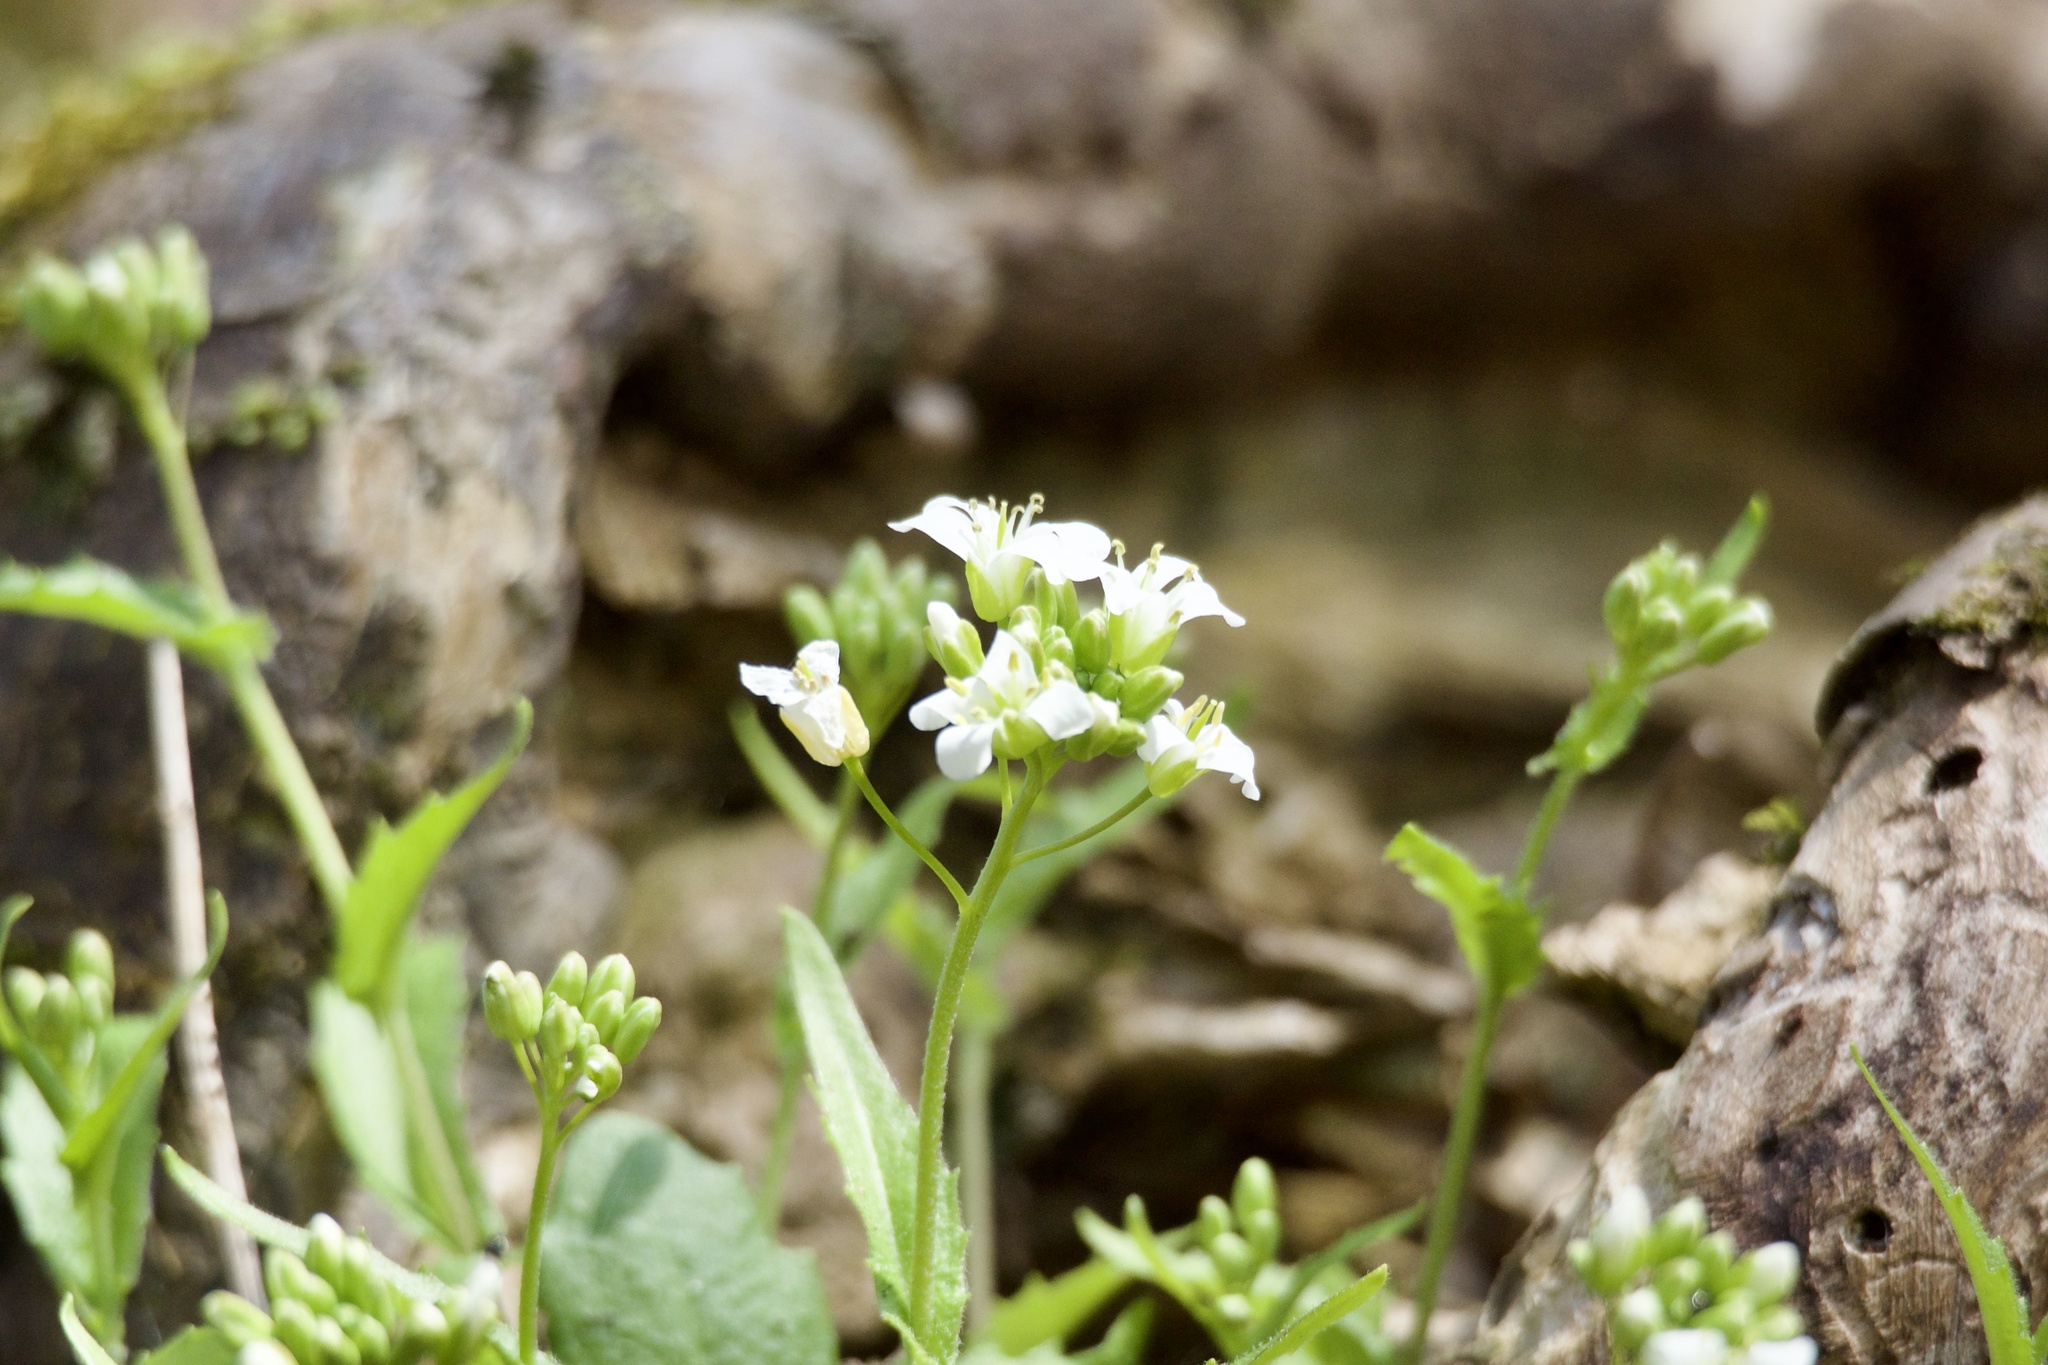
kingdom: Plantae
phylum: Tracheophyta
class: Magnoliopsida
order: Brassicales
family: Brassicaceae
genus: Arabis
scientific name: Arabis serrata
